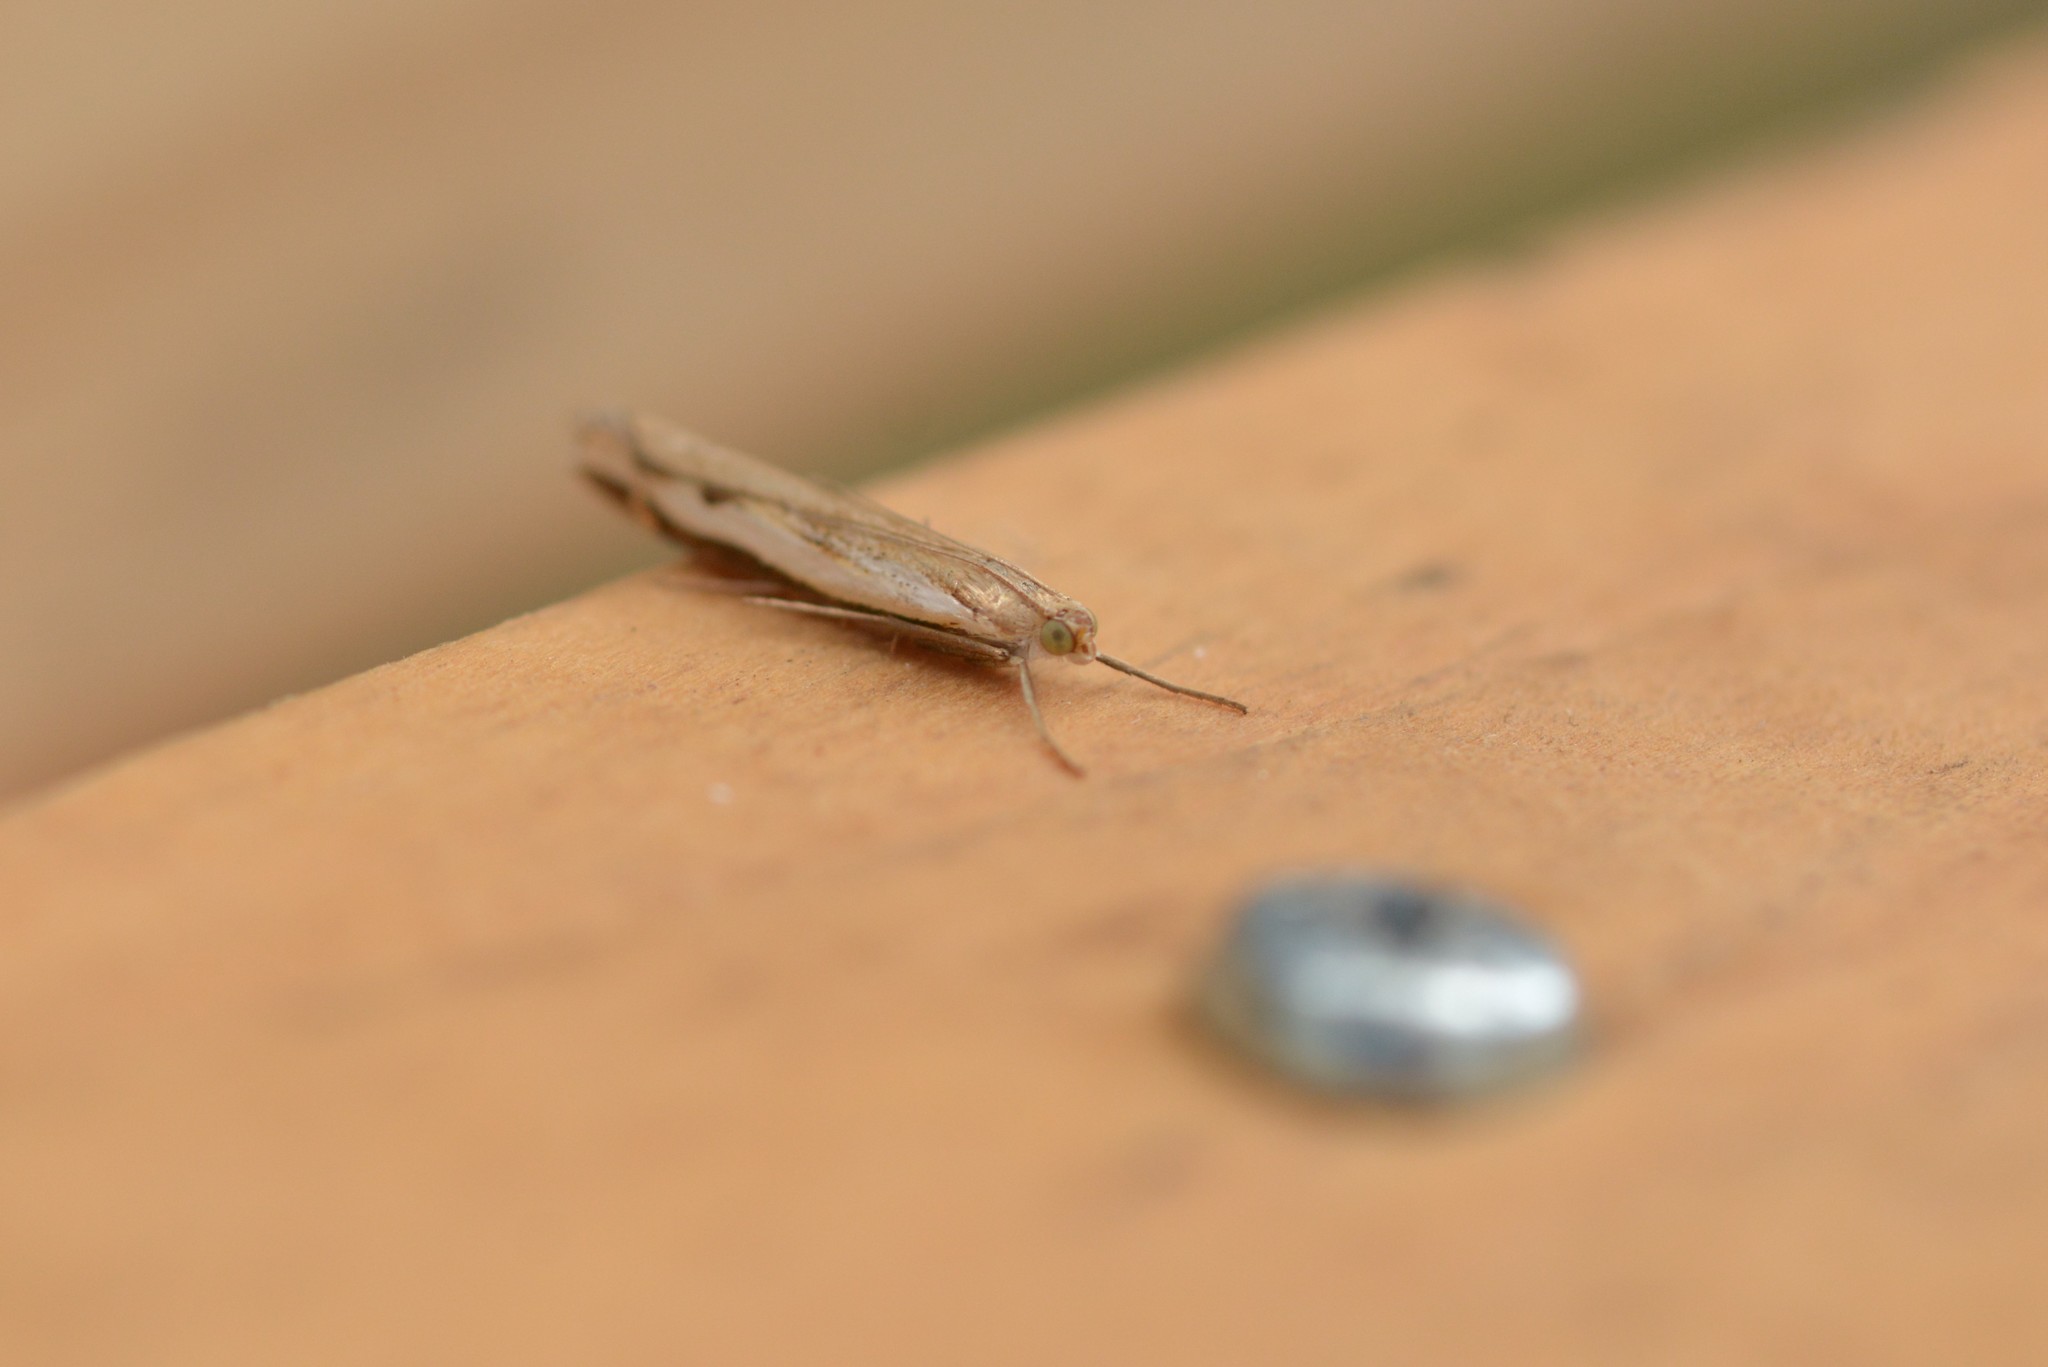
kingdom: Animalia
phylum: Arthropoda
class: Insecta
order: Lepidoptera
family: Crambidae
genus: Orocrambus
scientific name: Orocrambus flexuosellus
